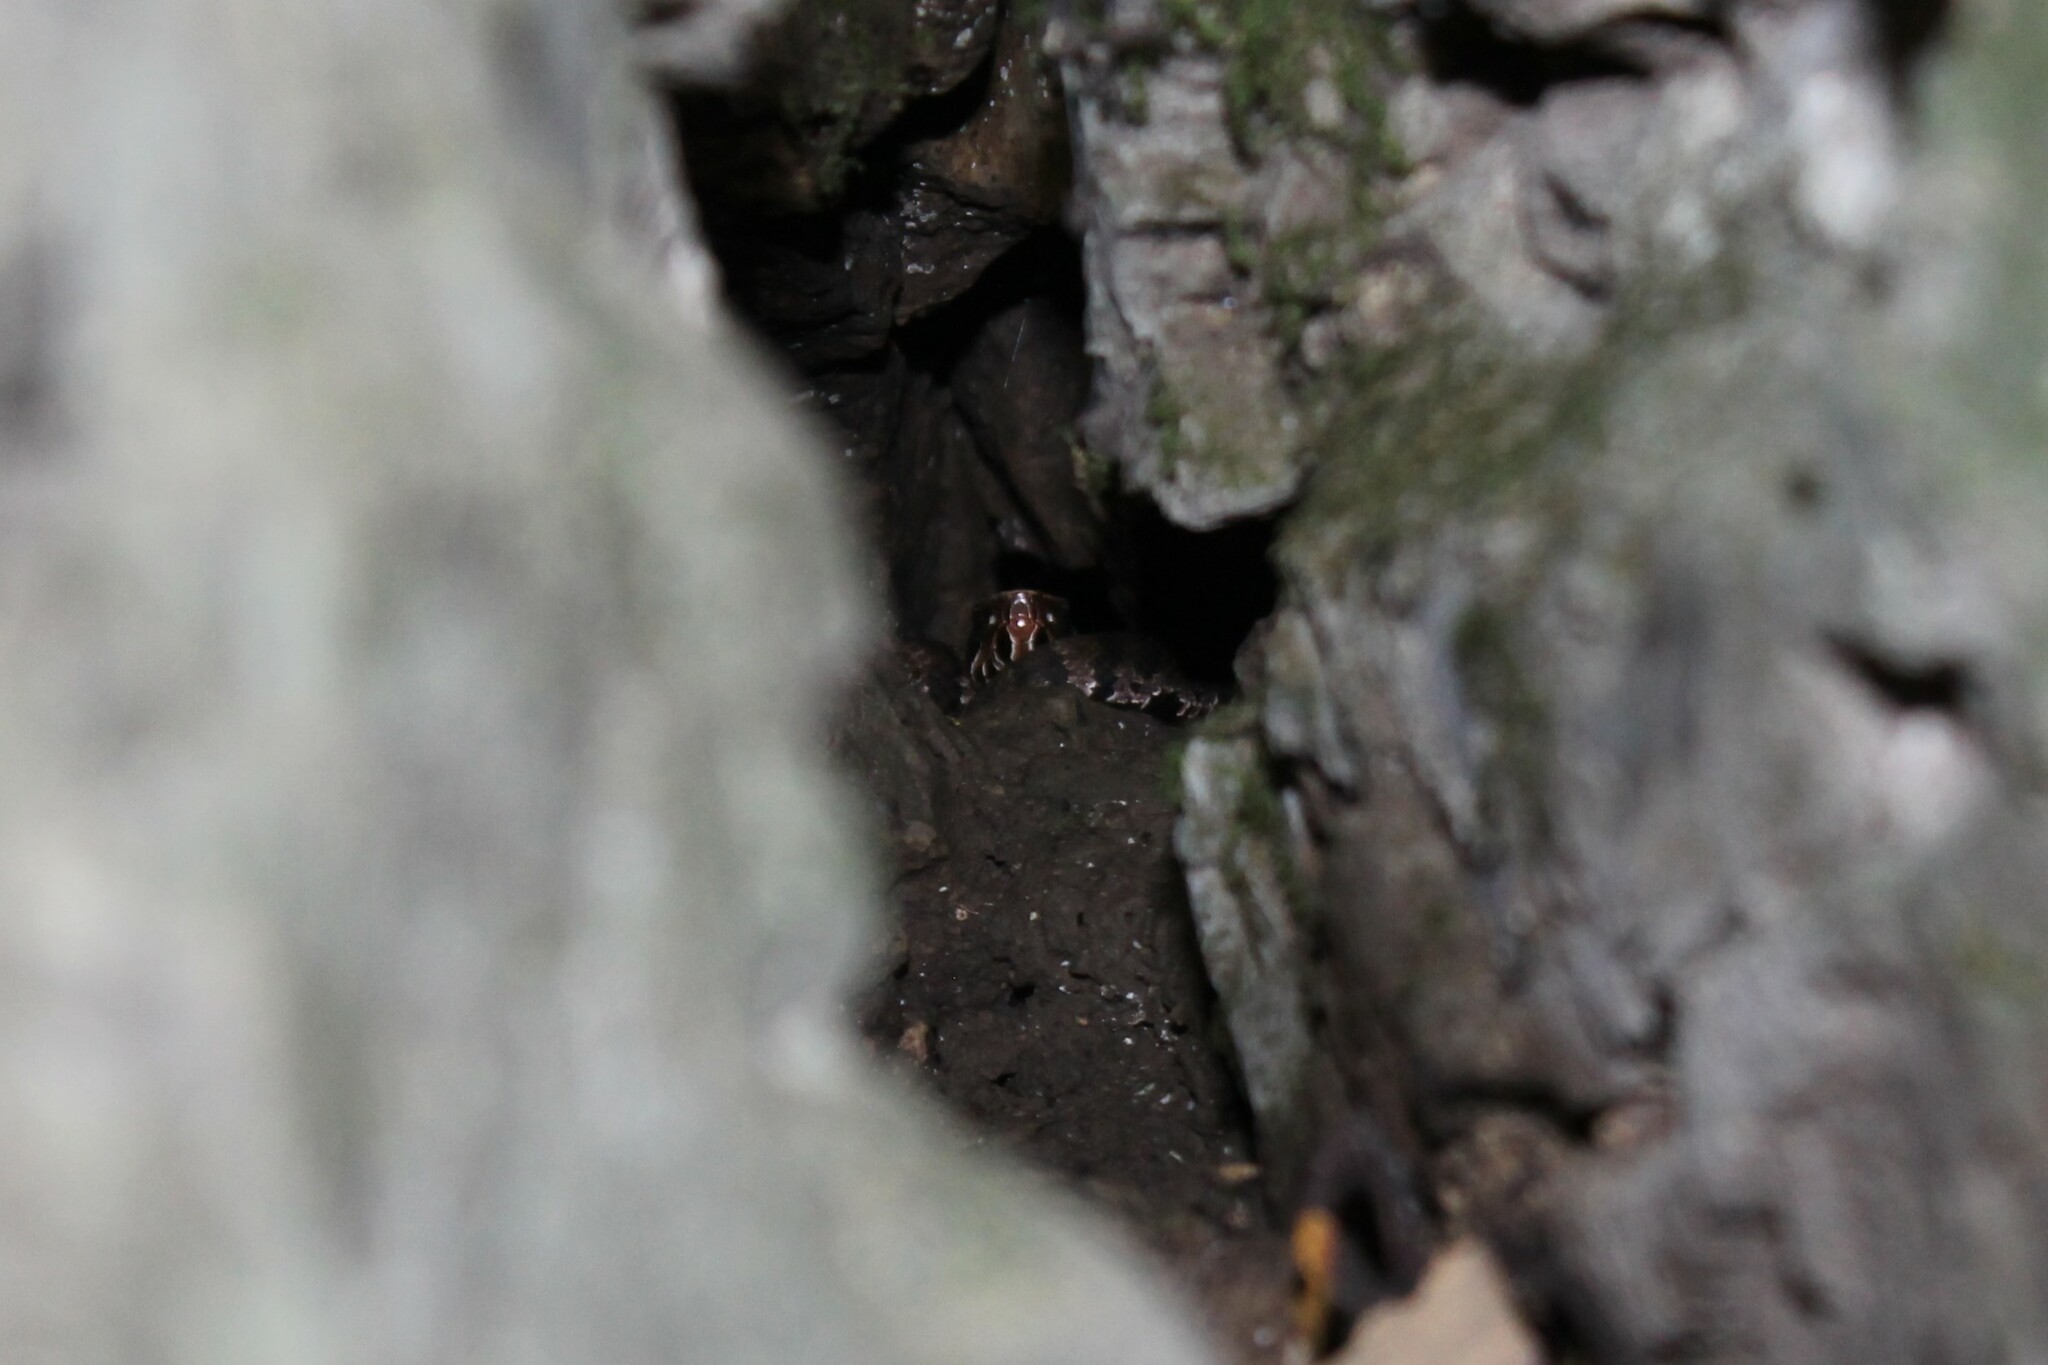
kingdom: Animalia
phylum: Chordata
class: Squamata
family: Viperidae
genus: Agkistrodon
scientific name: Agkistrodon piscivorus
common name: Cottonmouth
